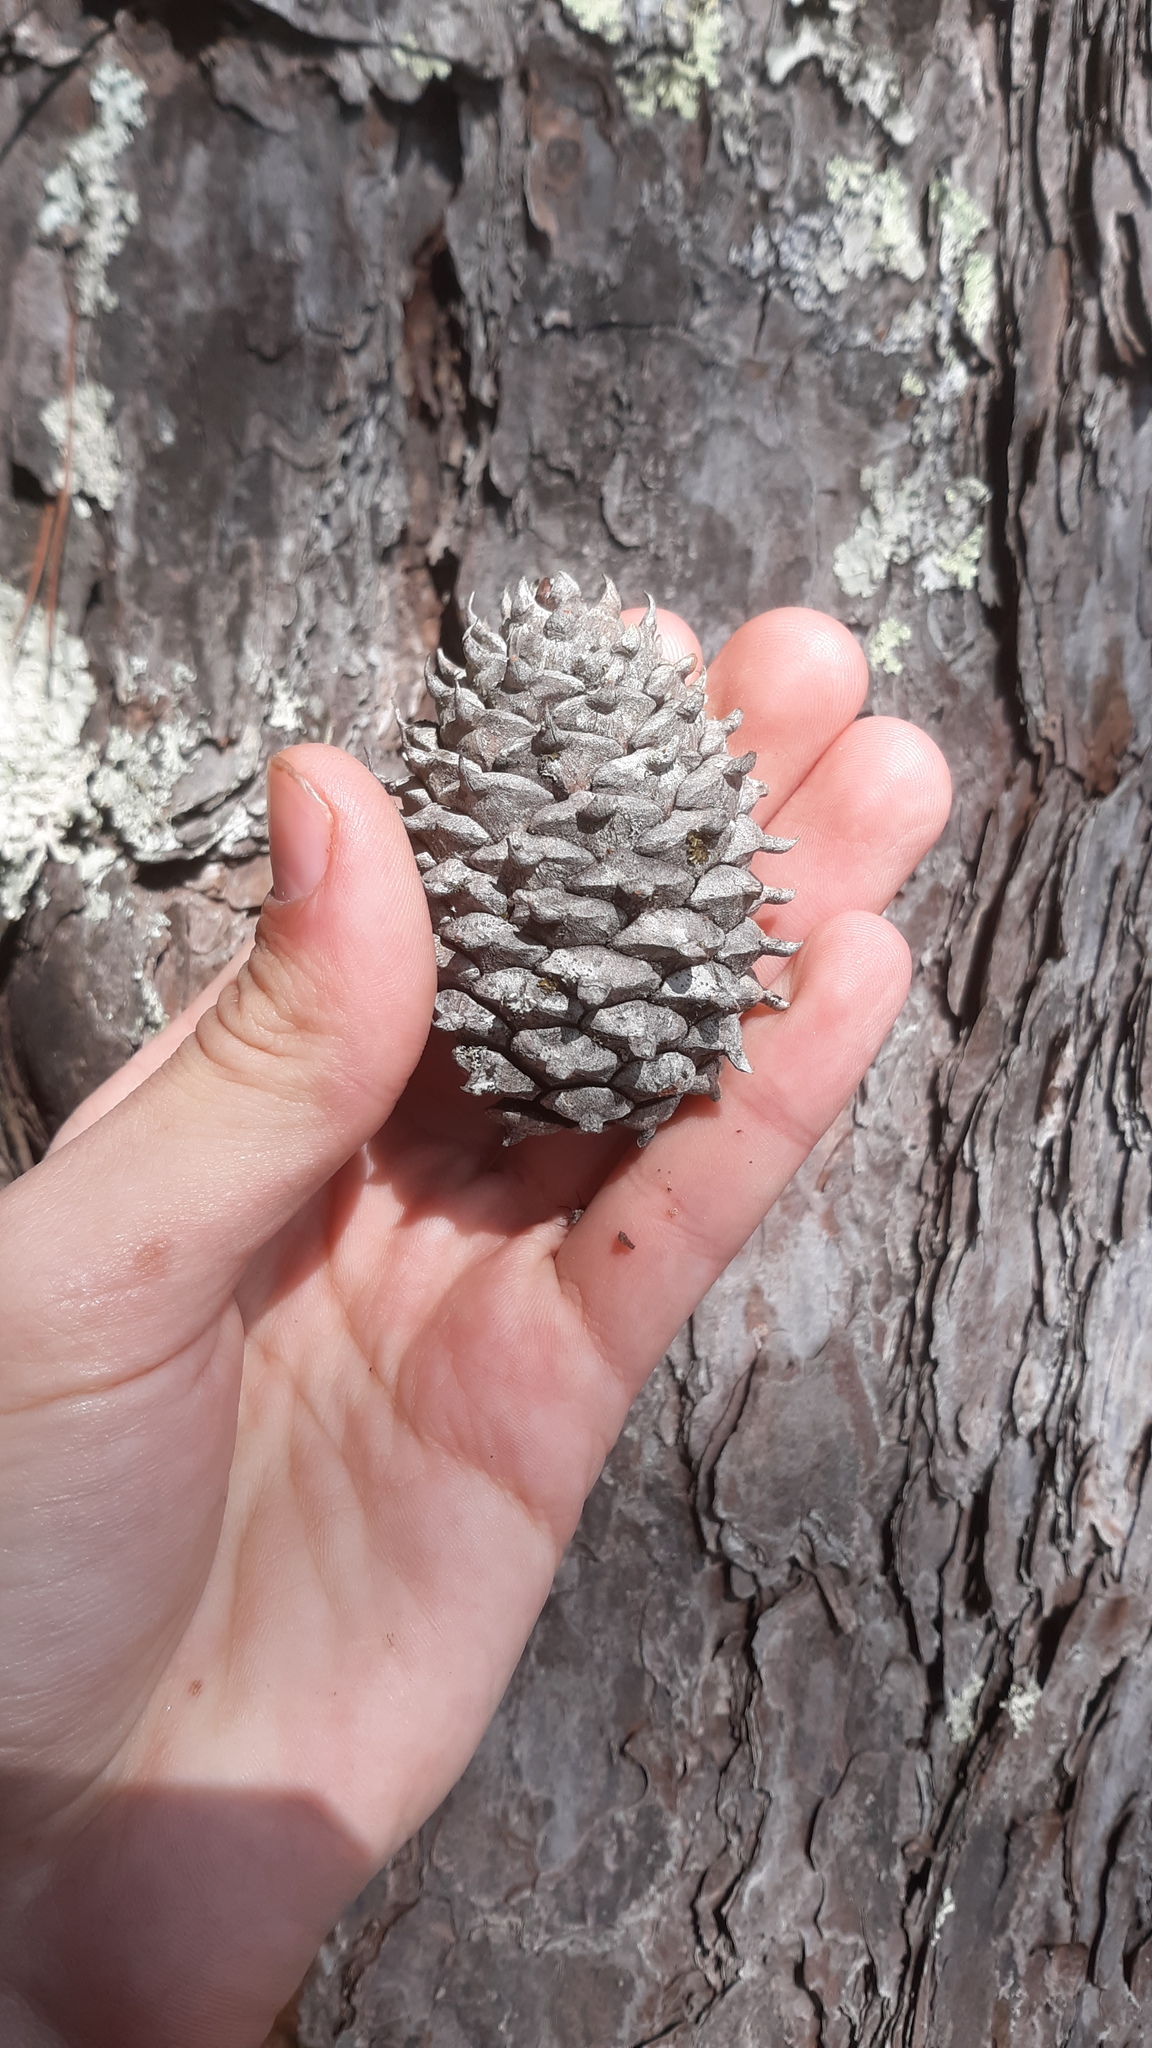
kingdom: Plantae
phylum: Tracheophyta
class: Pinopsida
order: Pinales
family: Pinaceae
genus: Pinus
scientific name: Pinus pungens
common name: Hickory pine
